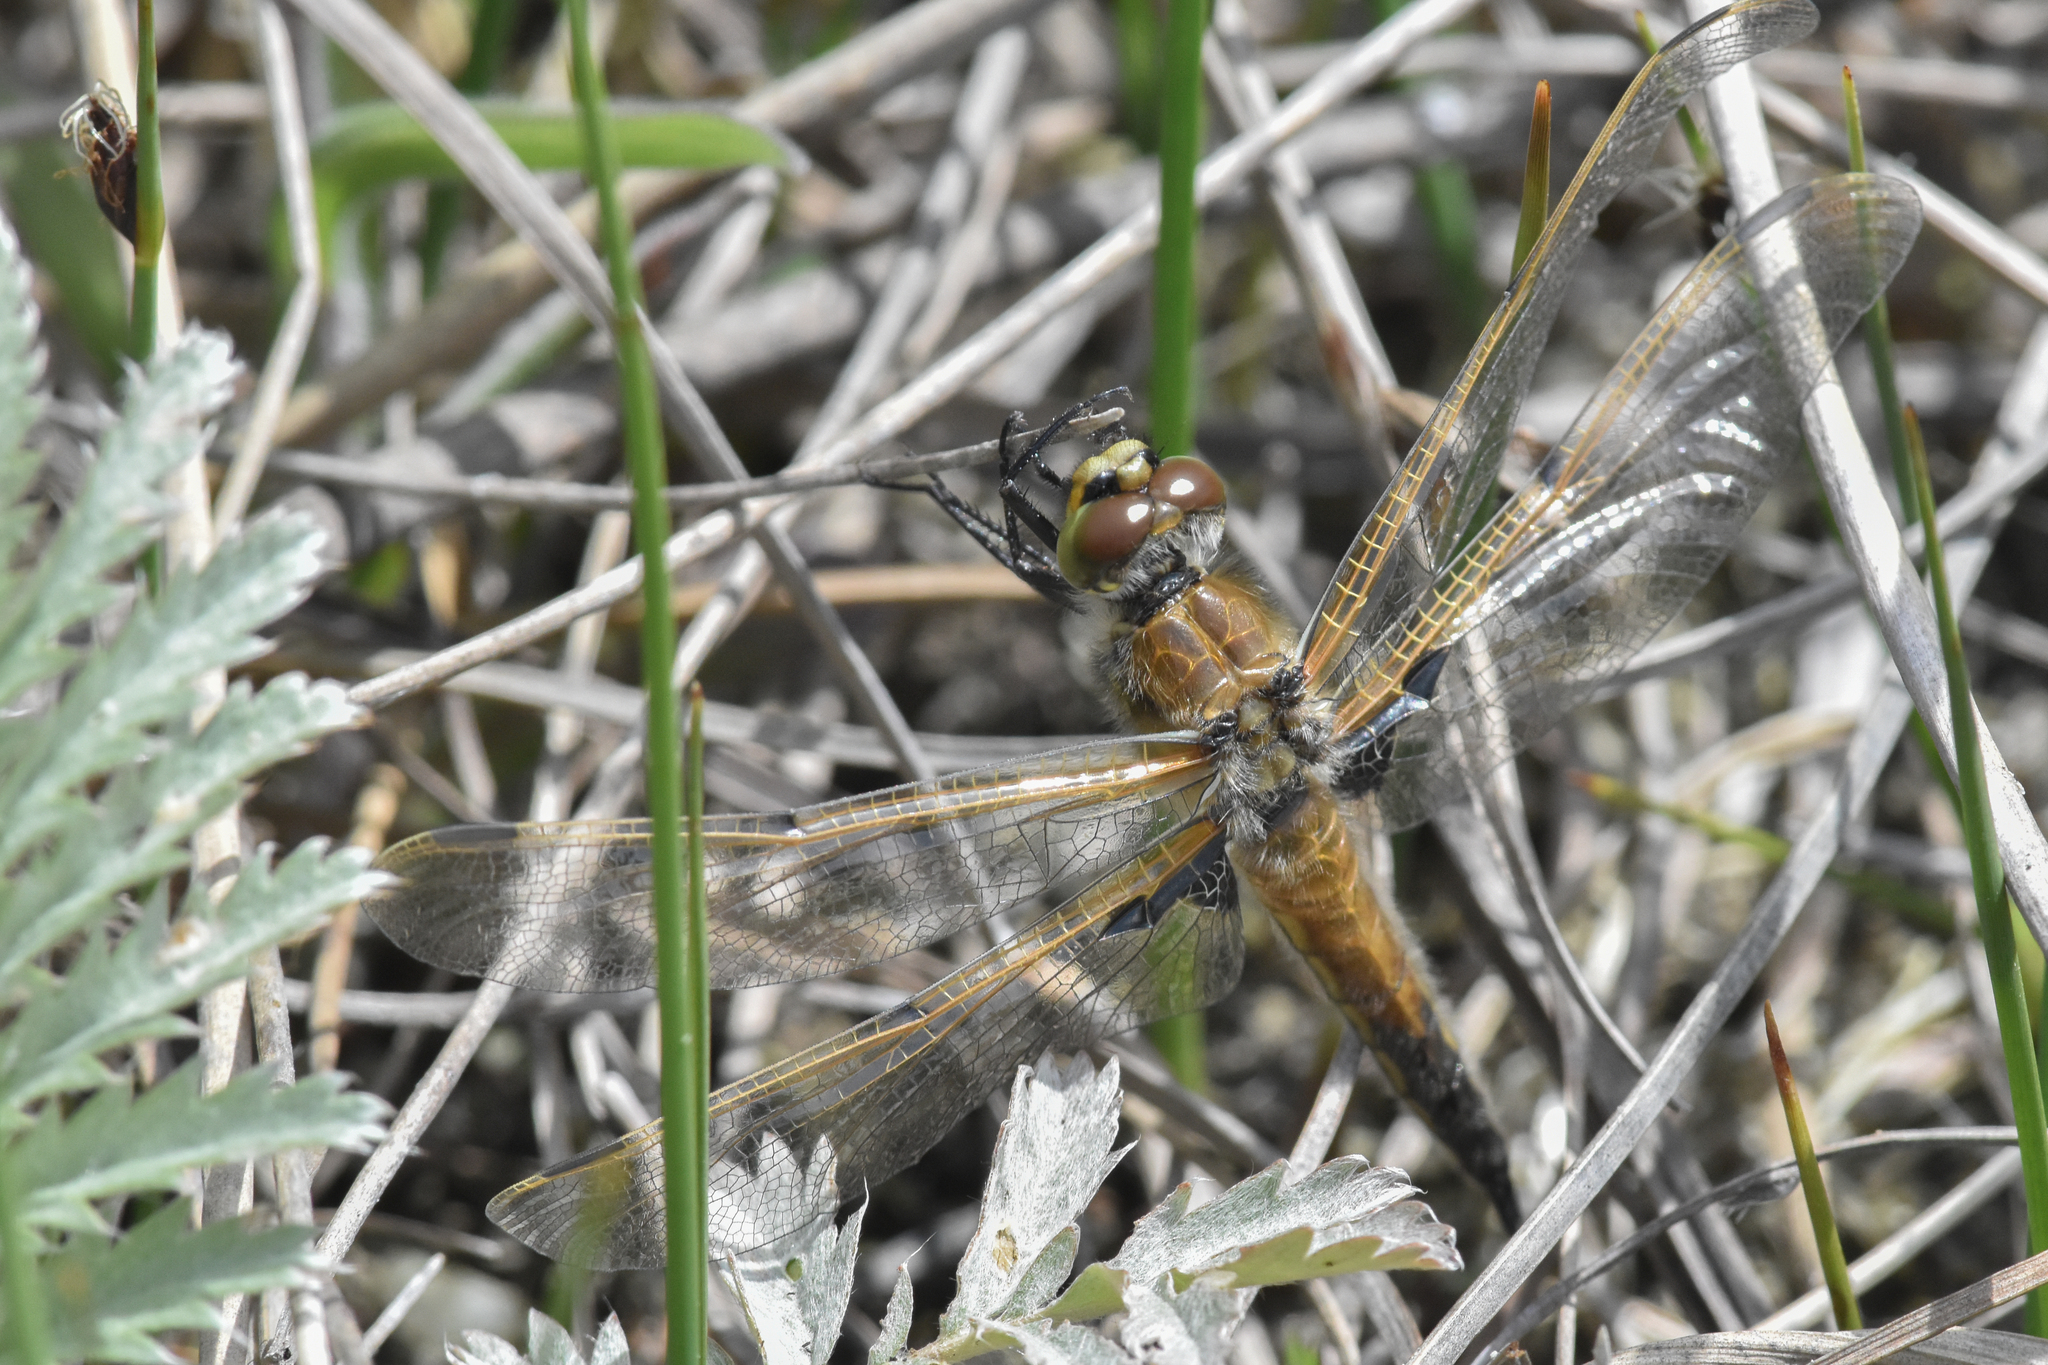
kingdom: Animalia
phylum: Arthropoda
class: Insecta
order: Odonata
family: Libellulidae
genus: Libellula
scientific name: Libellula quadrimaculata
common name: Four-spotted chaser
